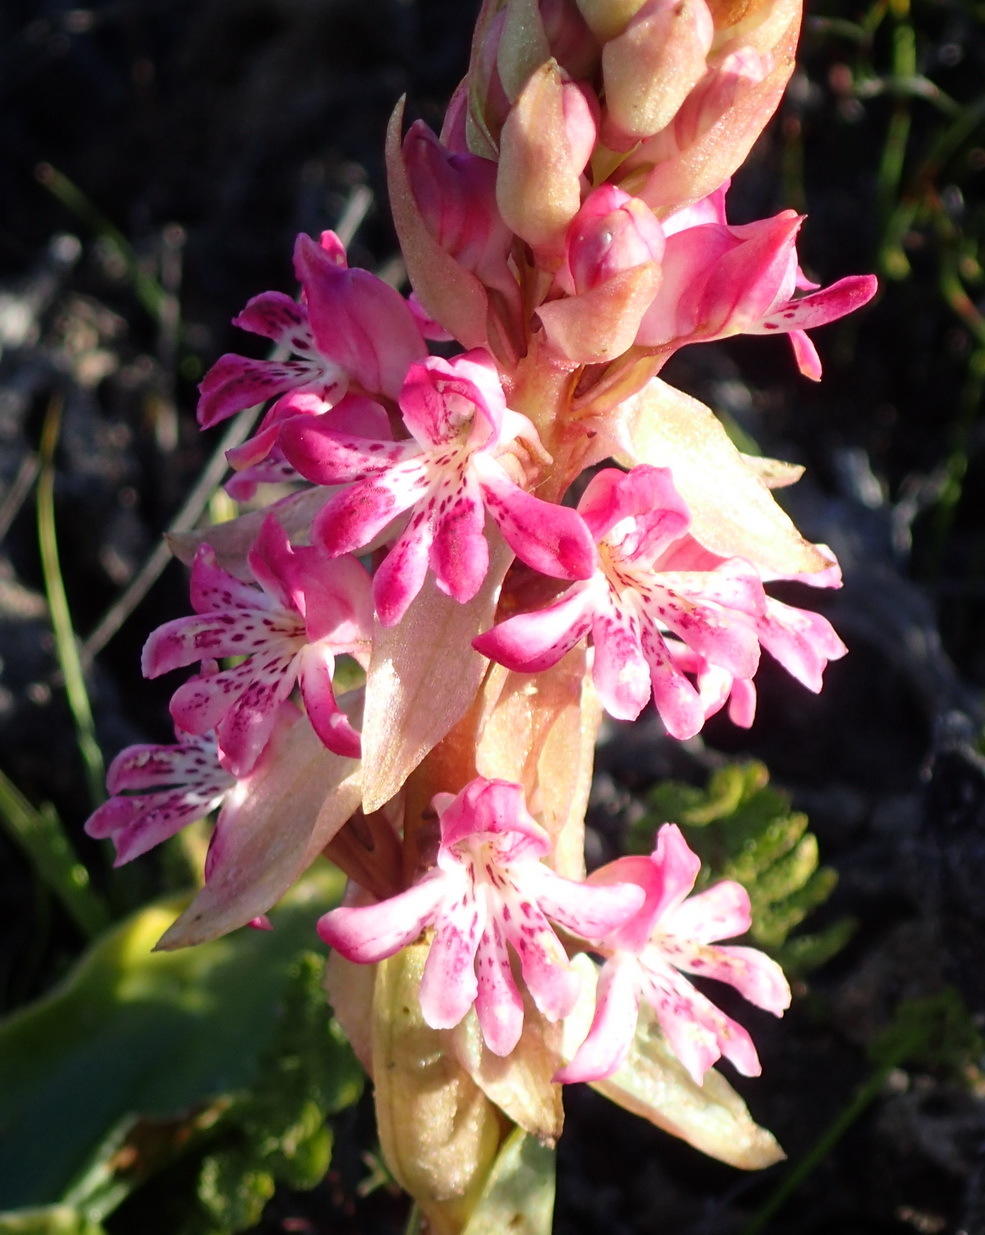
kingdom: Plantae
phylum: Tracheophyta
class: Liliopsida
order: Asparagales
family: Orchidaceae
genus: Satyrium
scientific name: Satyrium erectum
